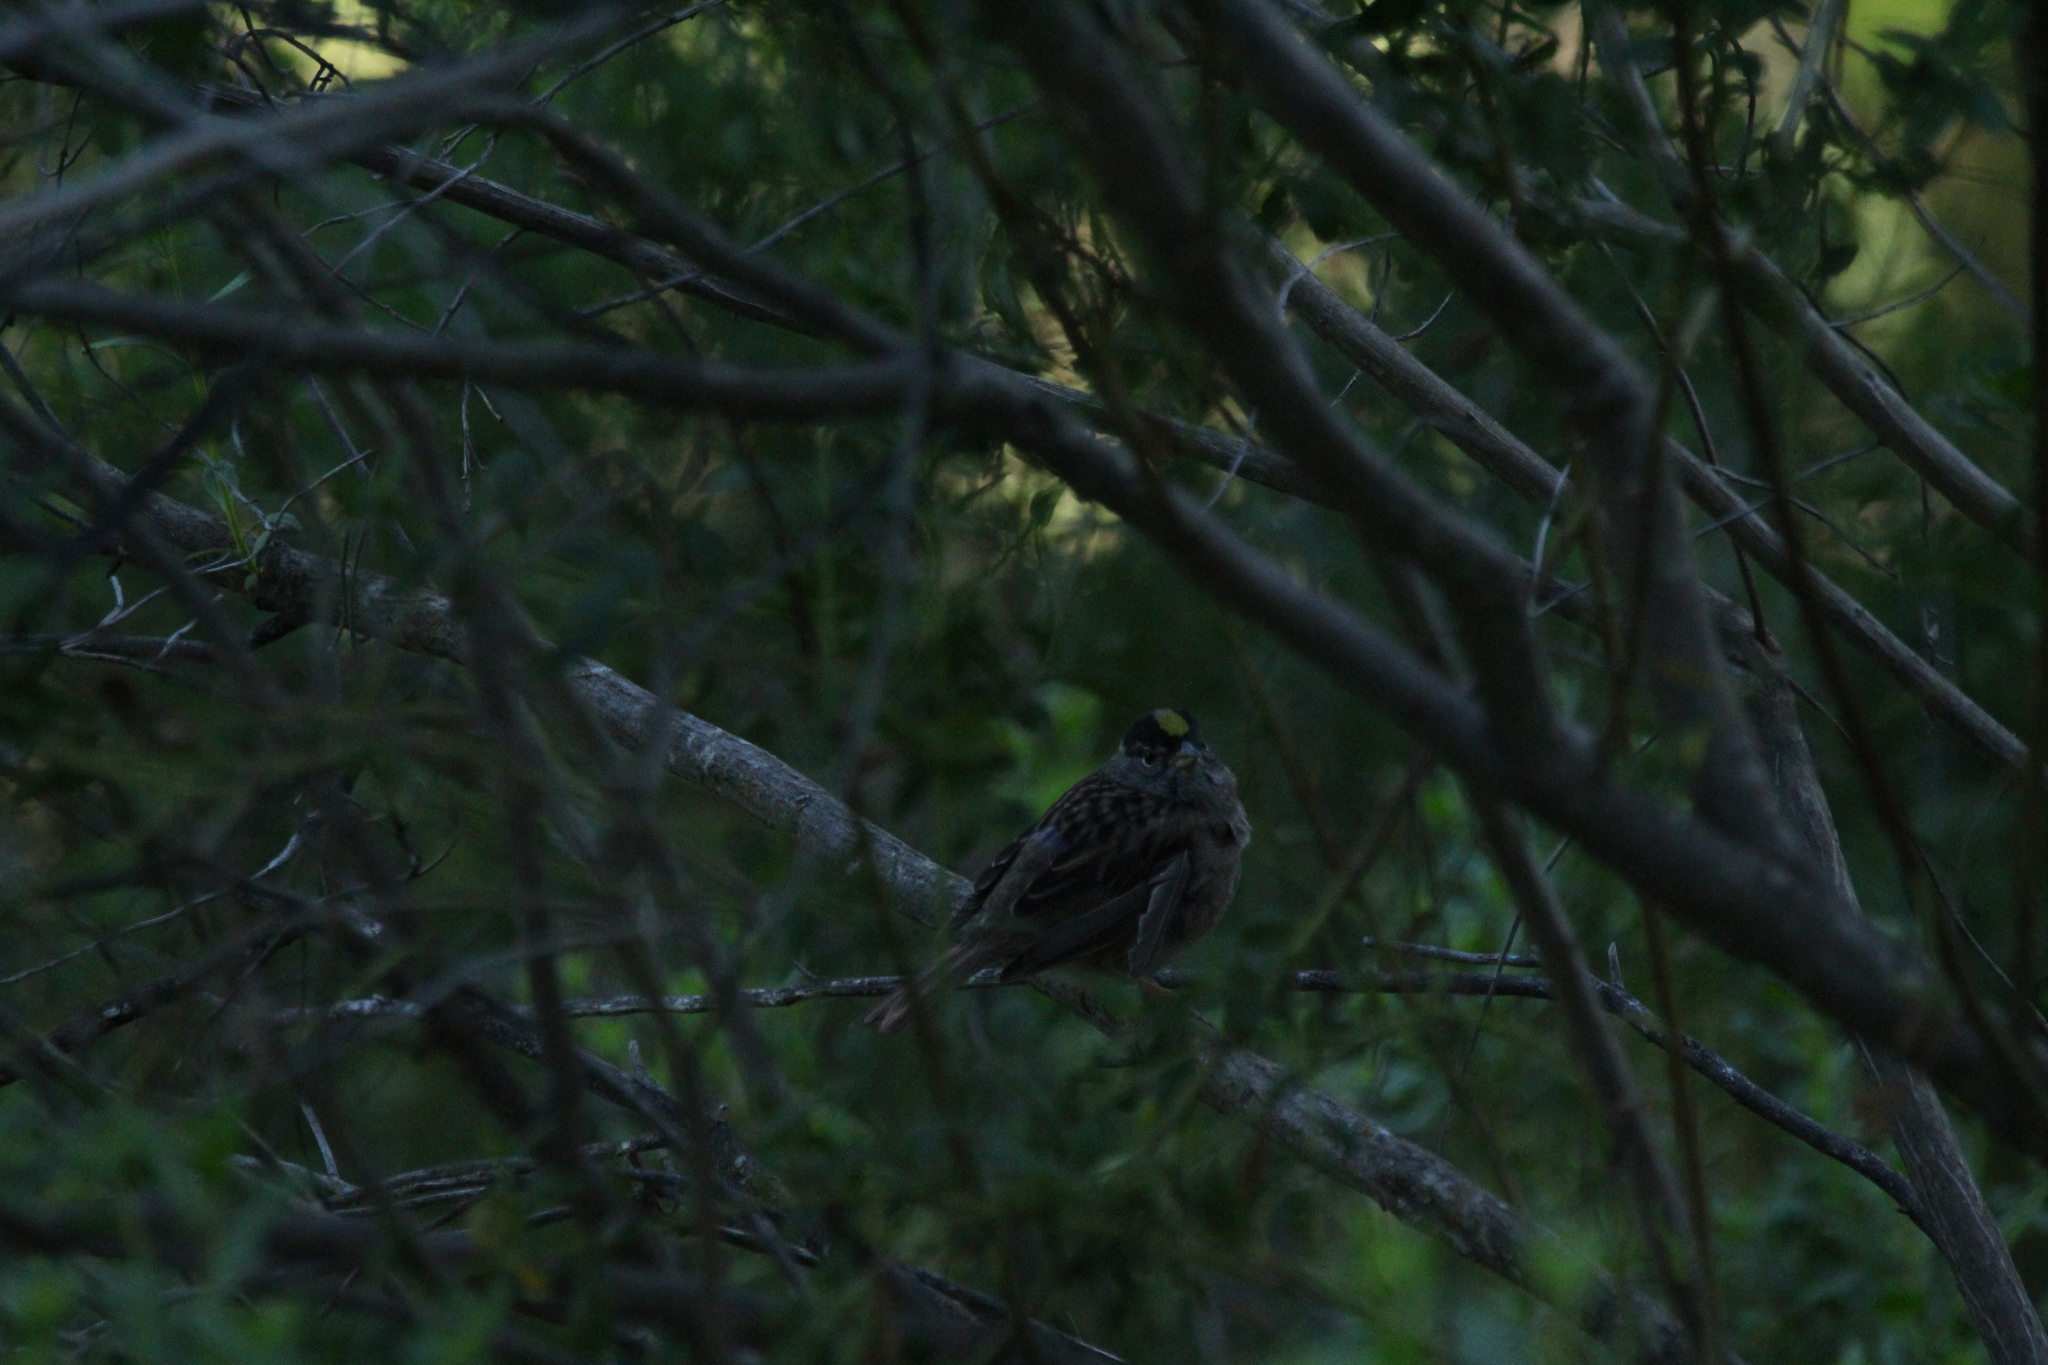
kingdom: Animalia
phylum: Chordata
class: Aves
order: Passeriformes
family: Passerellidae
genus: Zonotrichia
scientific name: Zonotrichia atricapilla
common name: Golden-crowned sparrow
